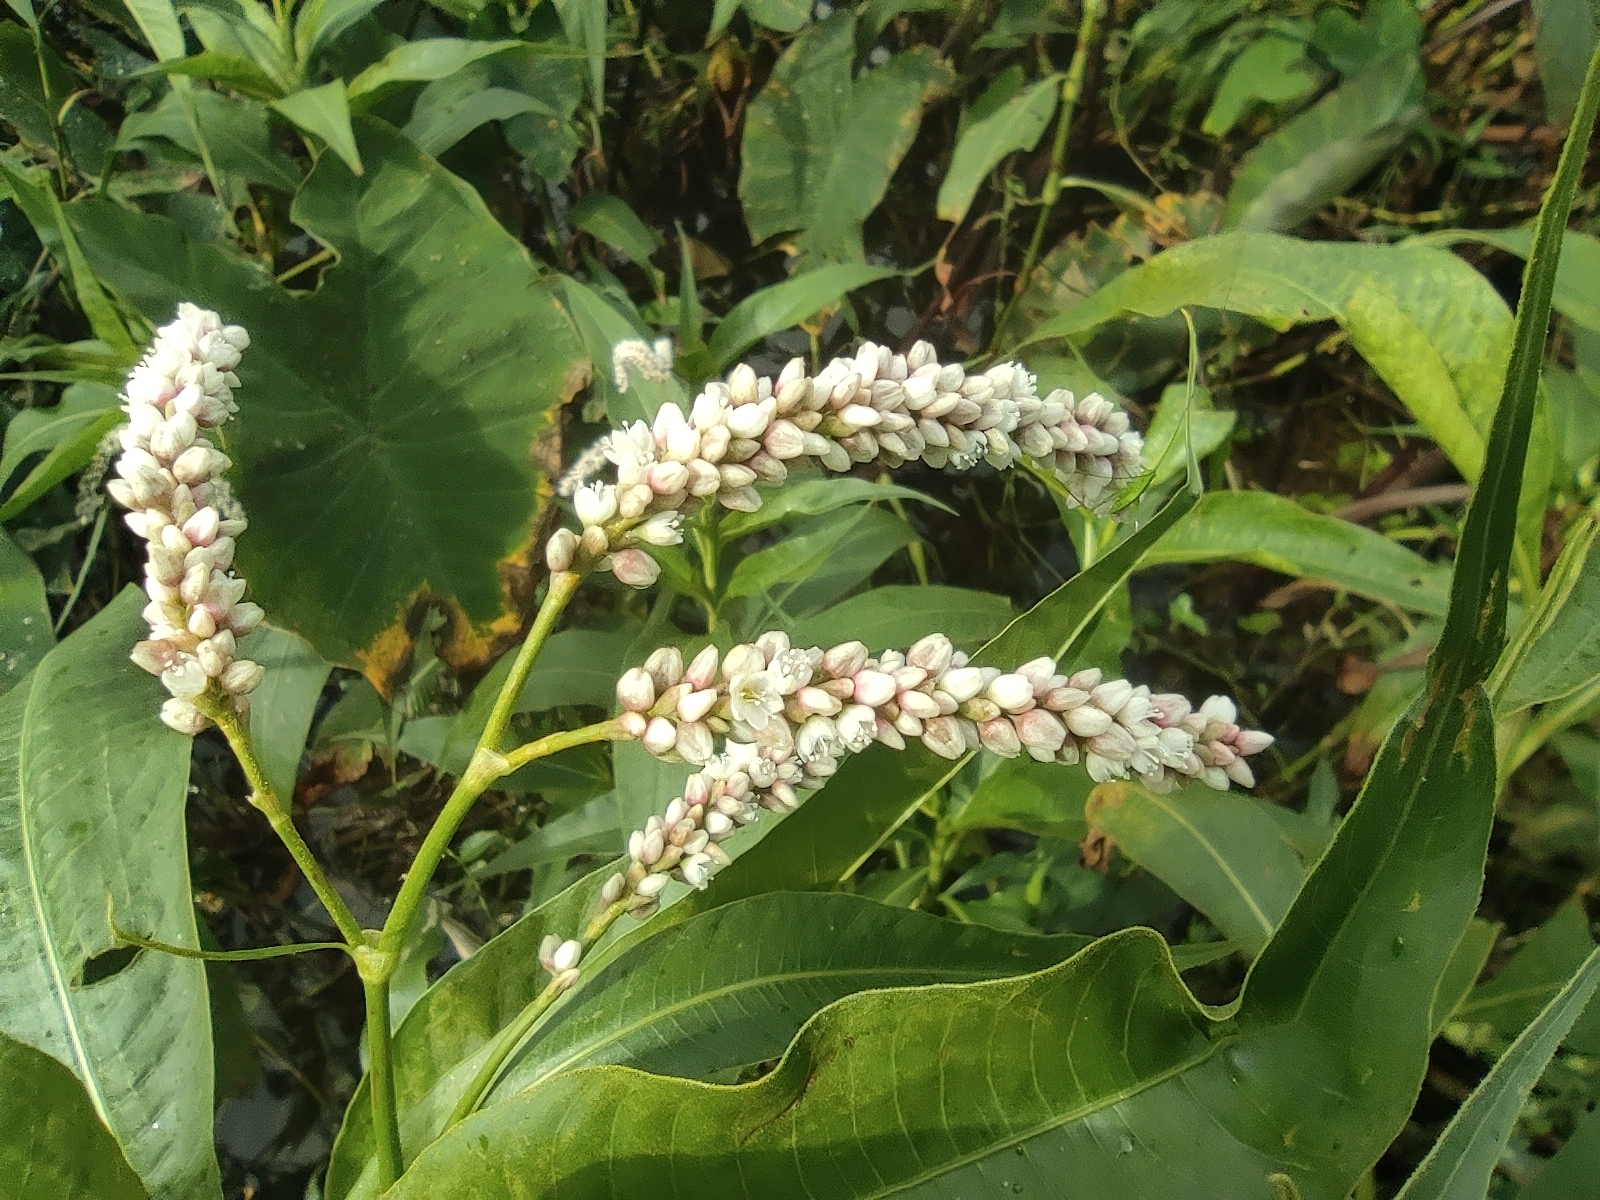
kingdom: Plantae
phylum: Tracheophyta
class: Magnoliopsida
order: Caryophyllales
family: Polygonaceae
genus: Persicaria
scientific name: Persicaria senegalensis
